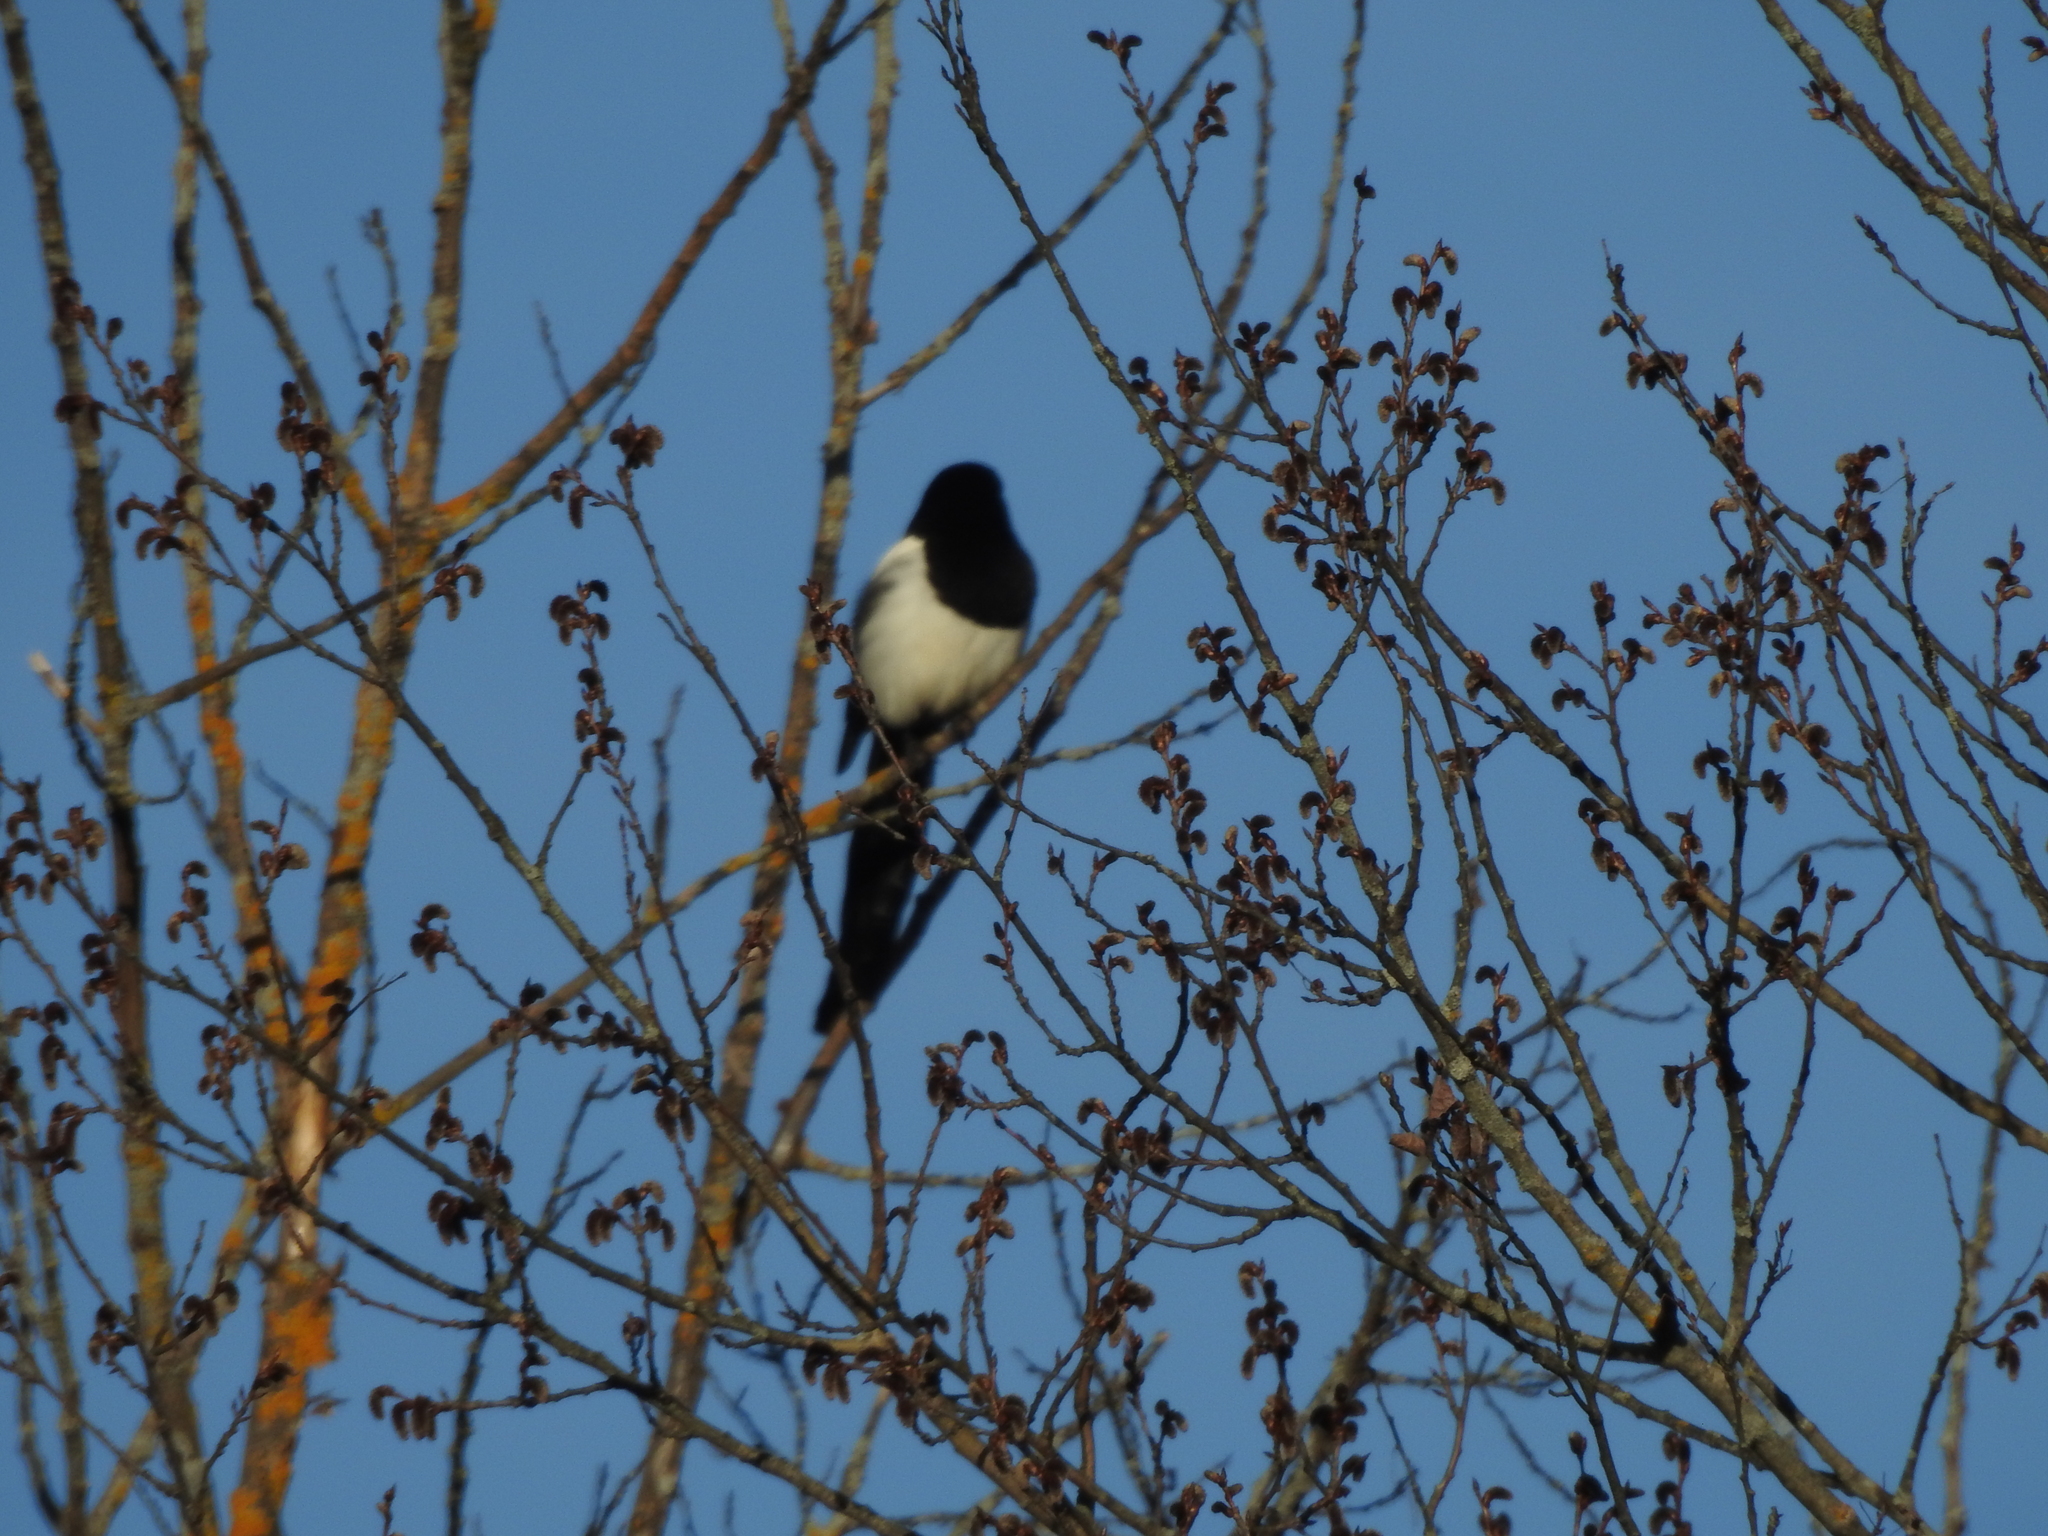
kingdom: Animalia
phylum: Chordata
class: Aves
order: Passeriformes
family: Corvidae
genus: Pica
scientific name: Pica pica
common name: Eurasian magpie
